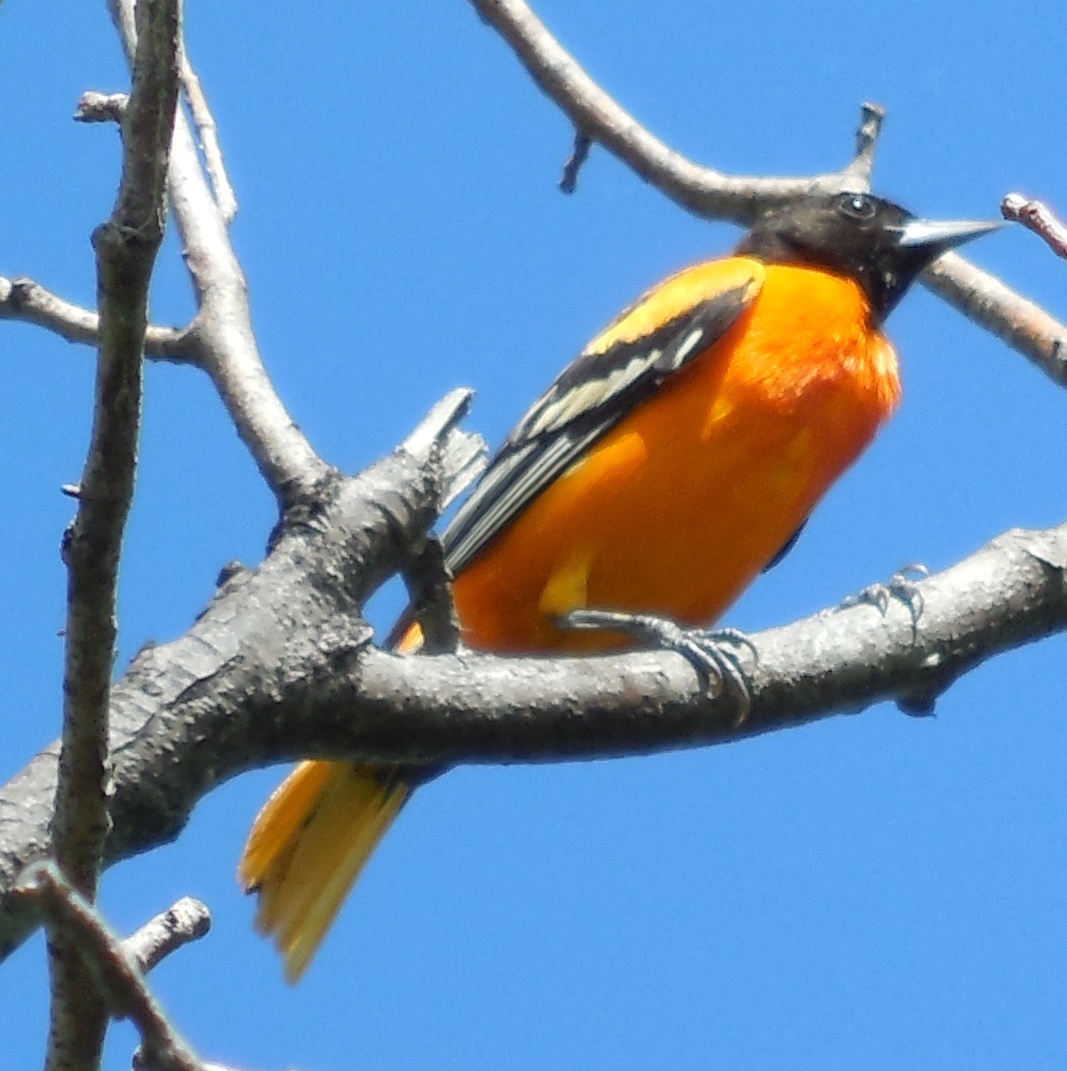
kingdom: Animalia
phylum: Chordata
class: Aves
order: Passeriformes
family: Icteridae
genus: Icterus
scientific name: Icterus galbula
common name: Baltimore oriole
